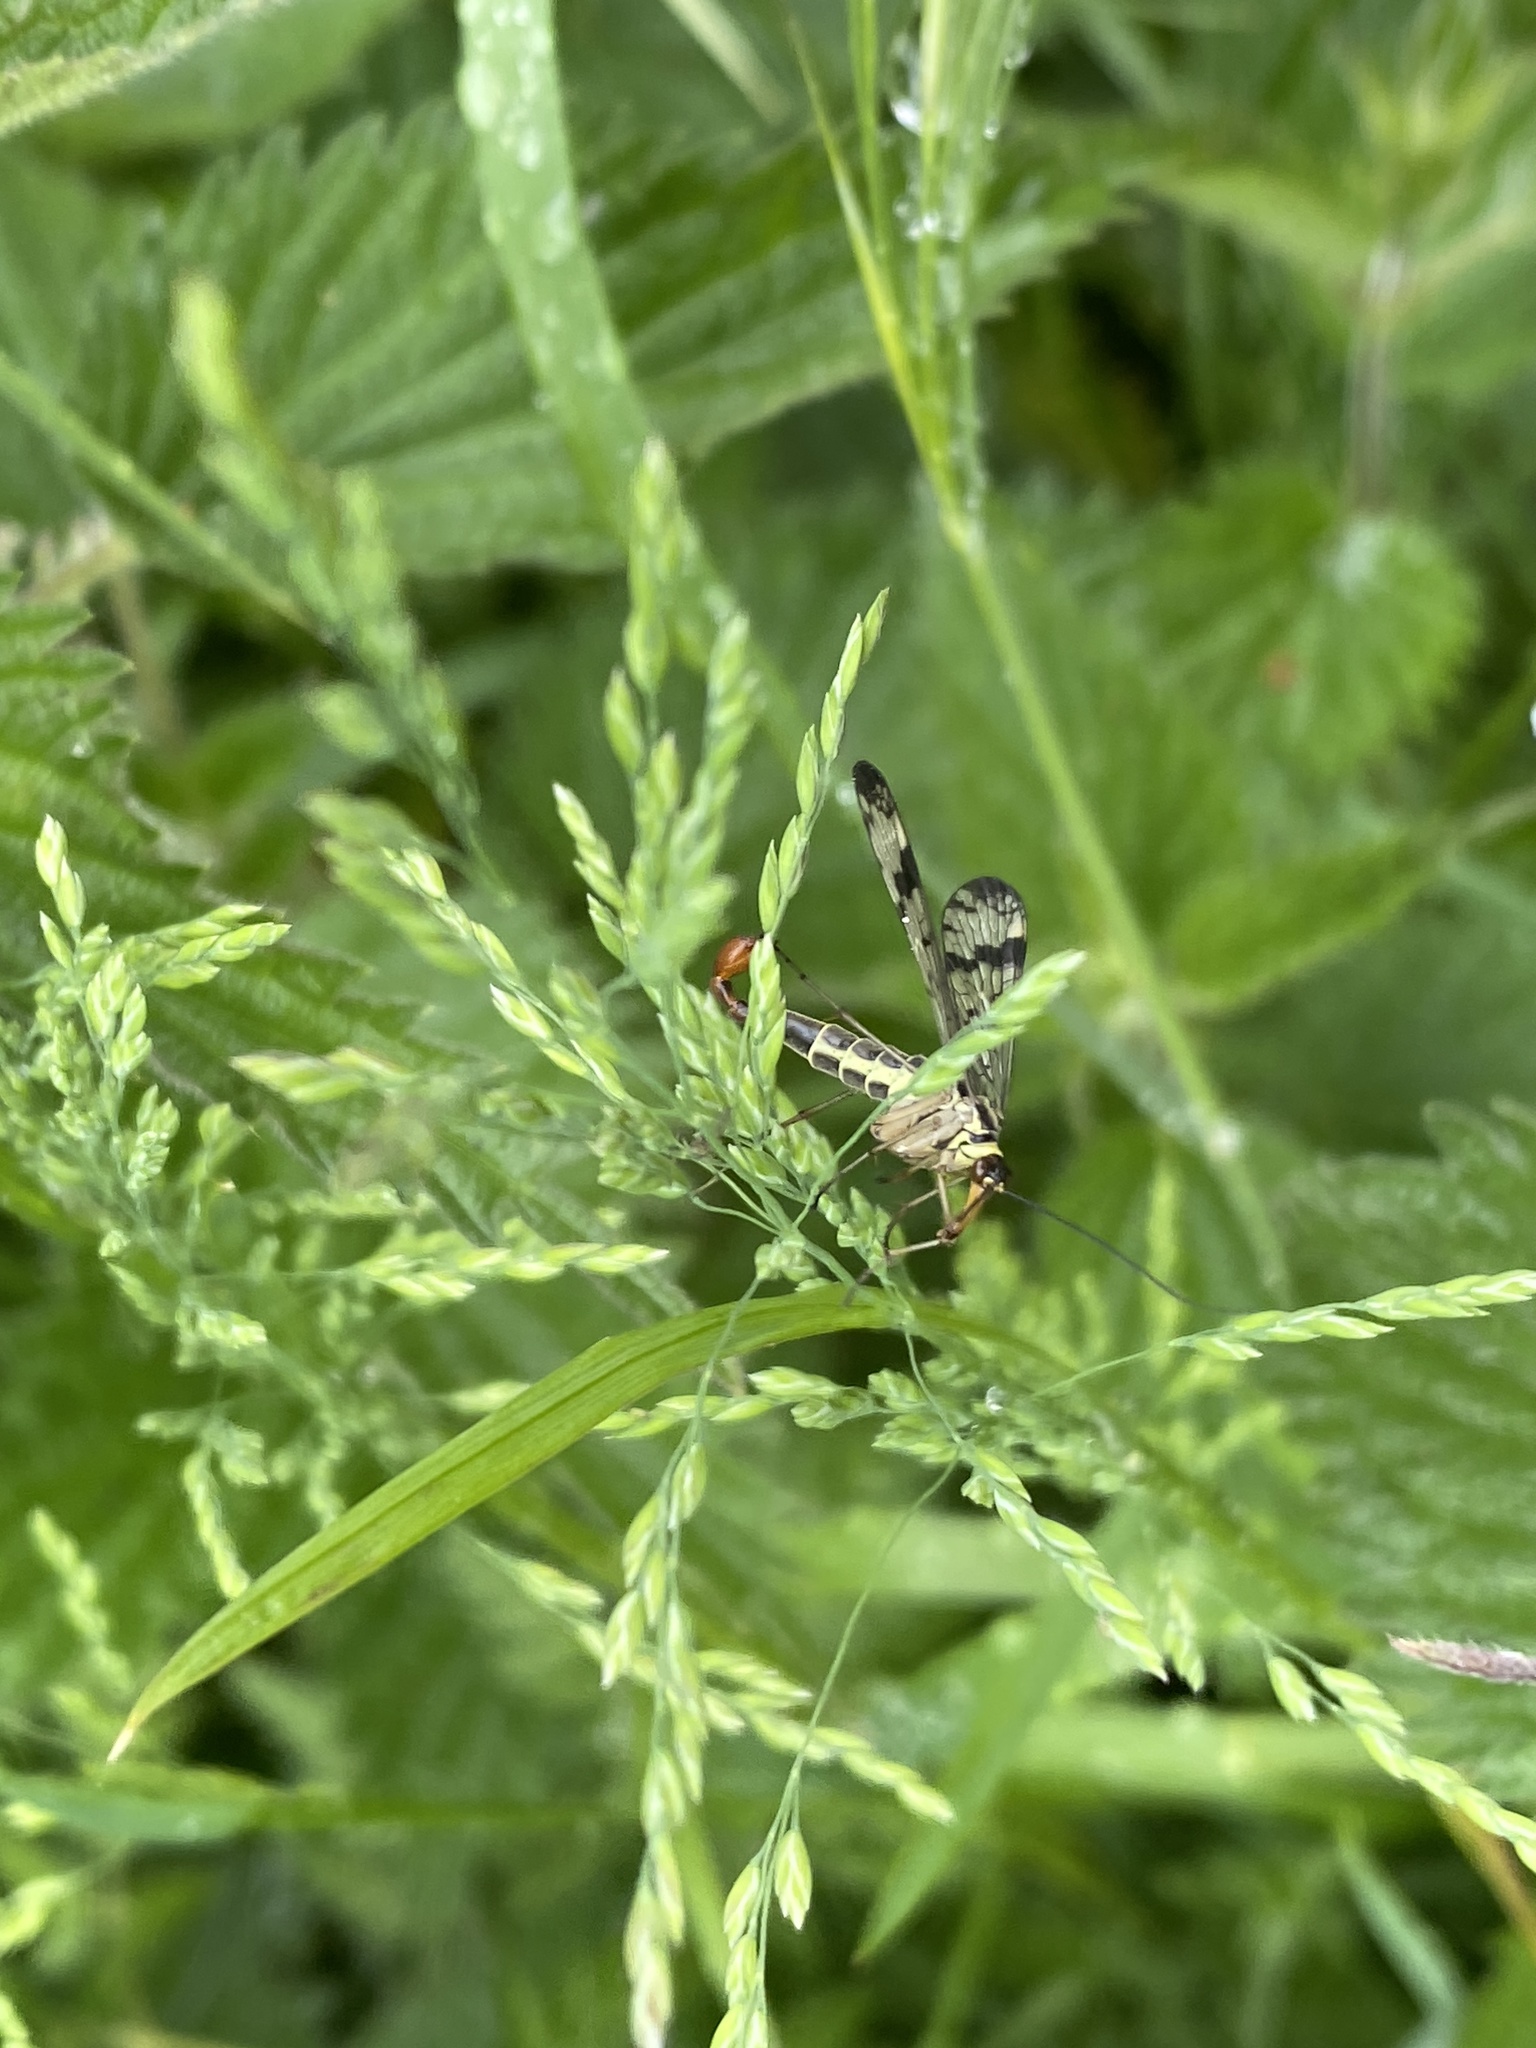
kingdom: Animalia
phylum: Arthropoda
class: Insecta
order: Mecoptera
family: Panorpidae
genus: Panorpa
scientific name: Panorpa communis
